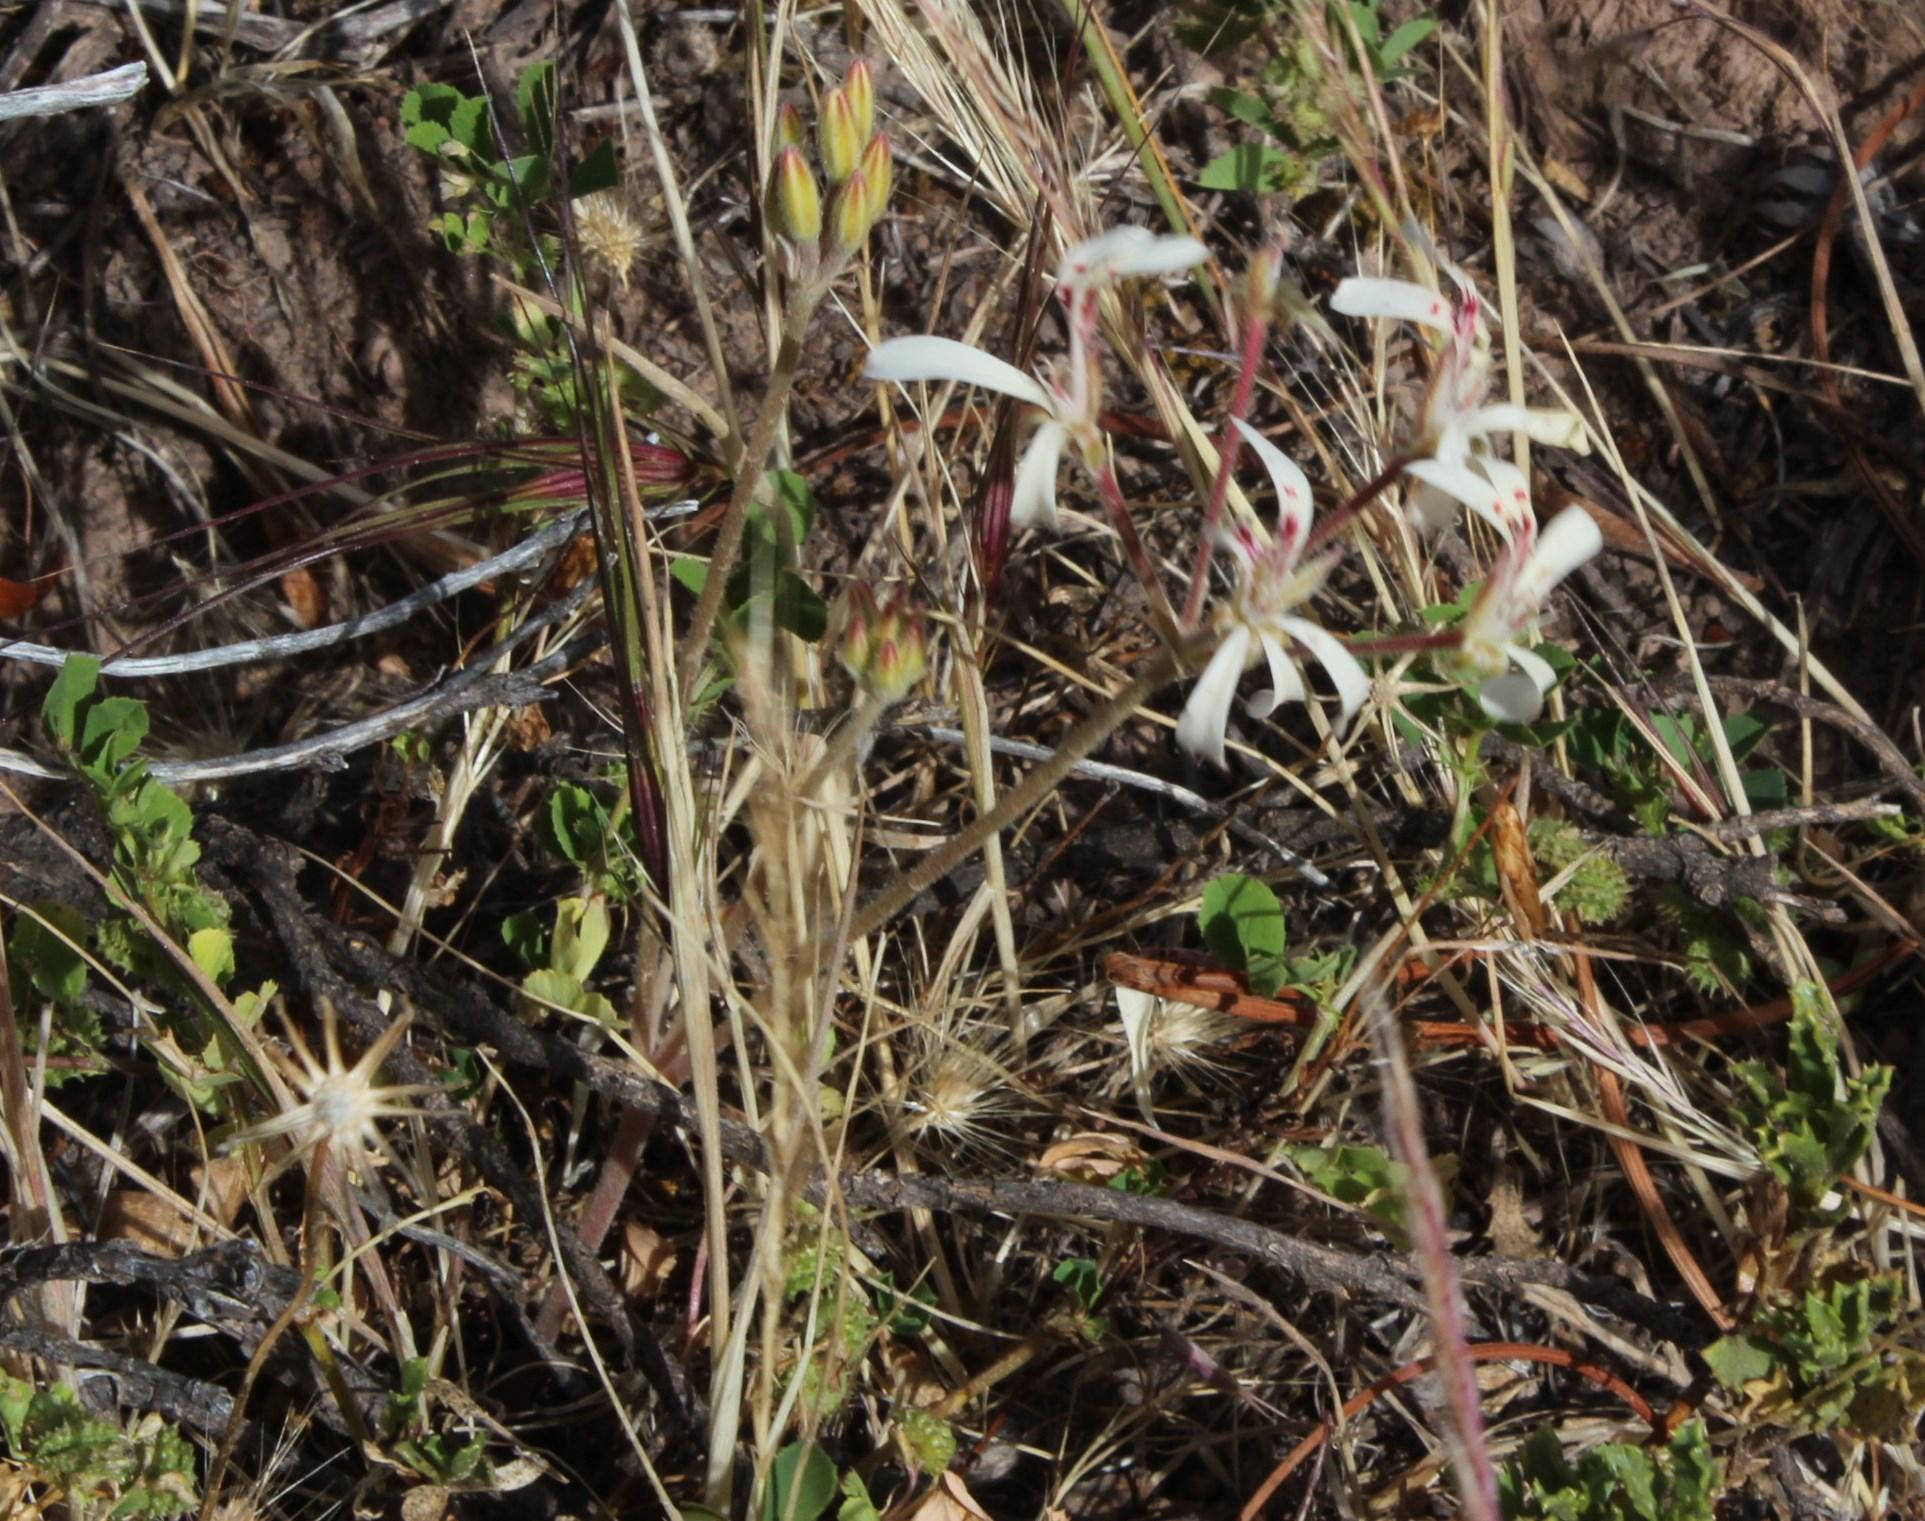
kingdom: Plantae
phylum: Tracheophyta
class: Magnoliopsida
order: Geraniales
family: Geraniaceae
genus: Pelargonium
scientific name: Pelargonium luteopetalum
